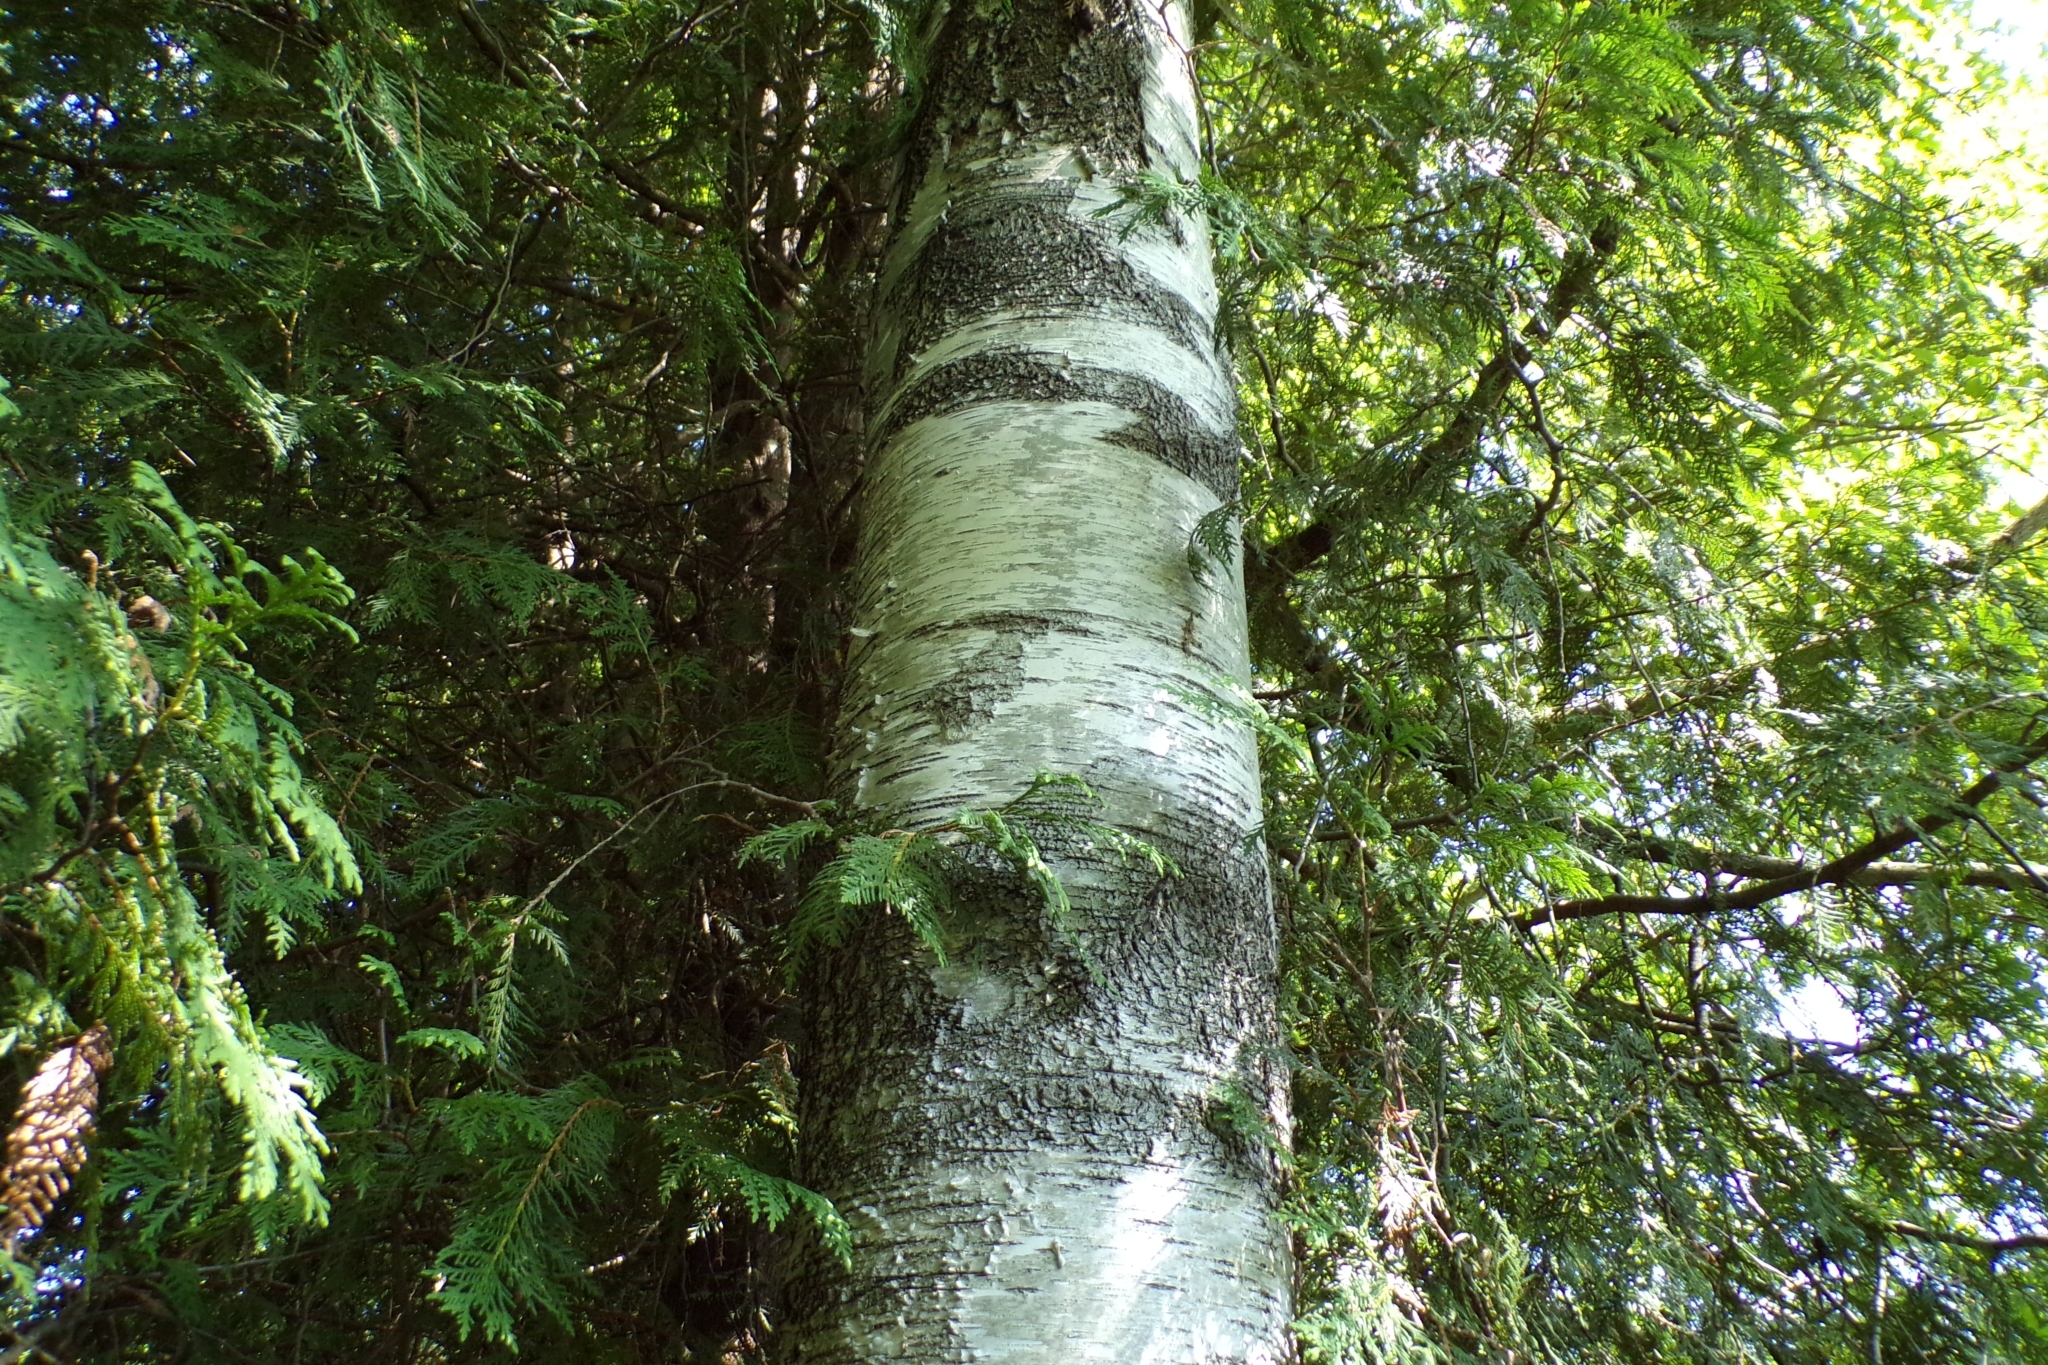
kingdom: Plantae
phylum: Tracheophyta
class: Magnoliopsida
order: Fagales
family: Betulaceae
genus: Betula
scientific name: Betula papyrifera
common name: Paper birch
